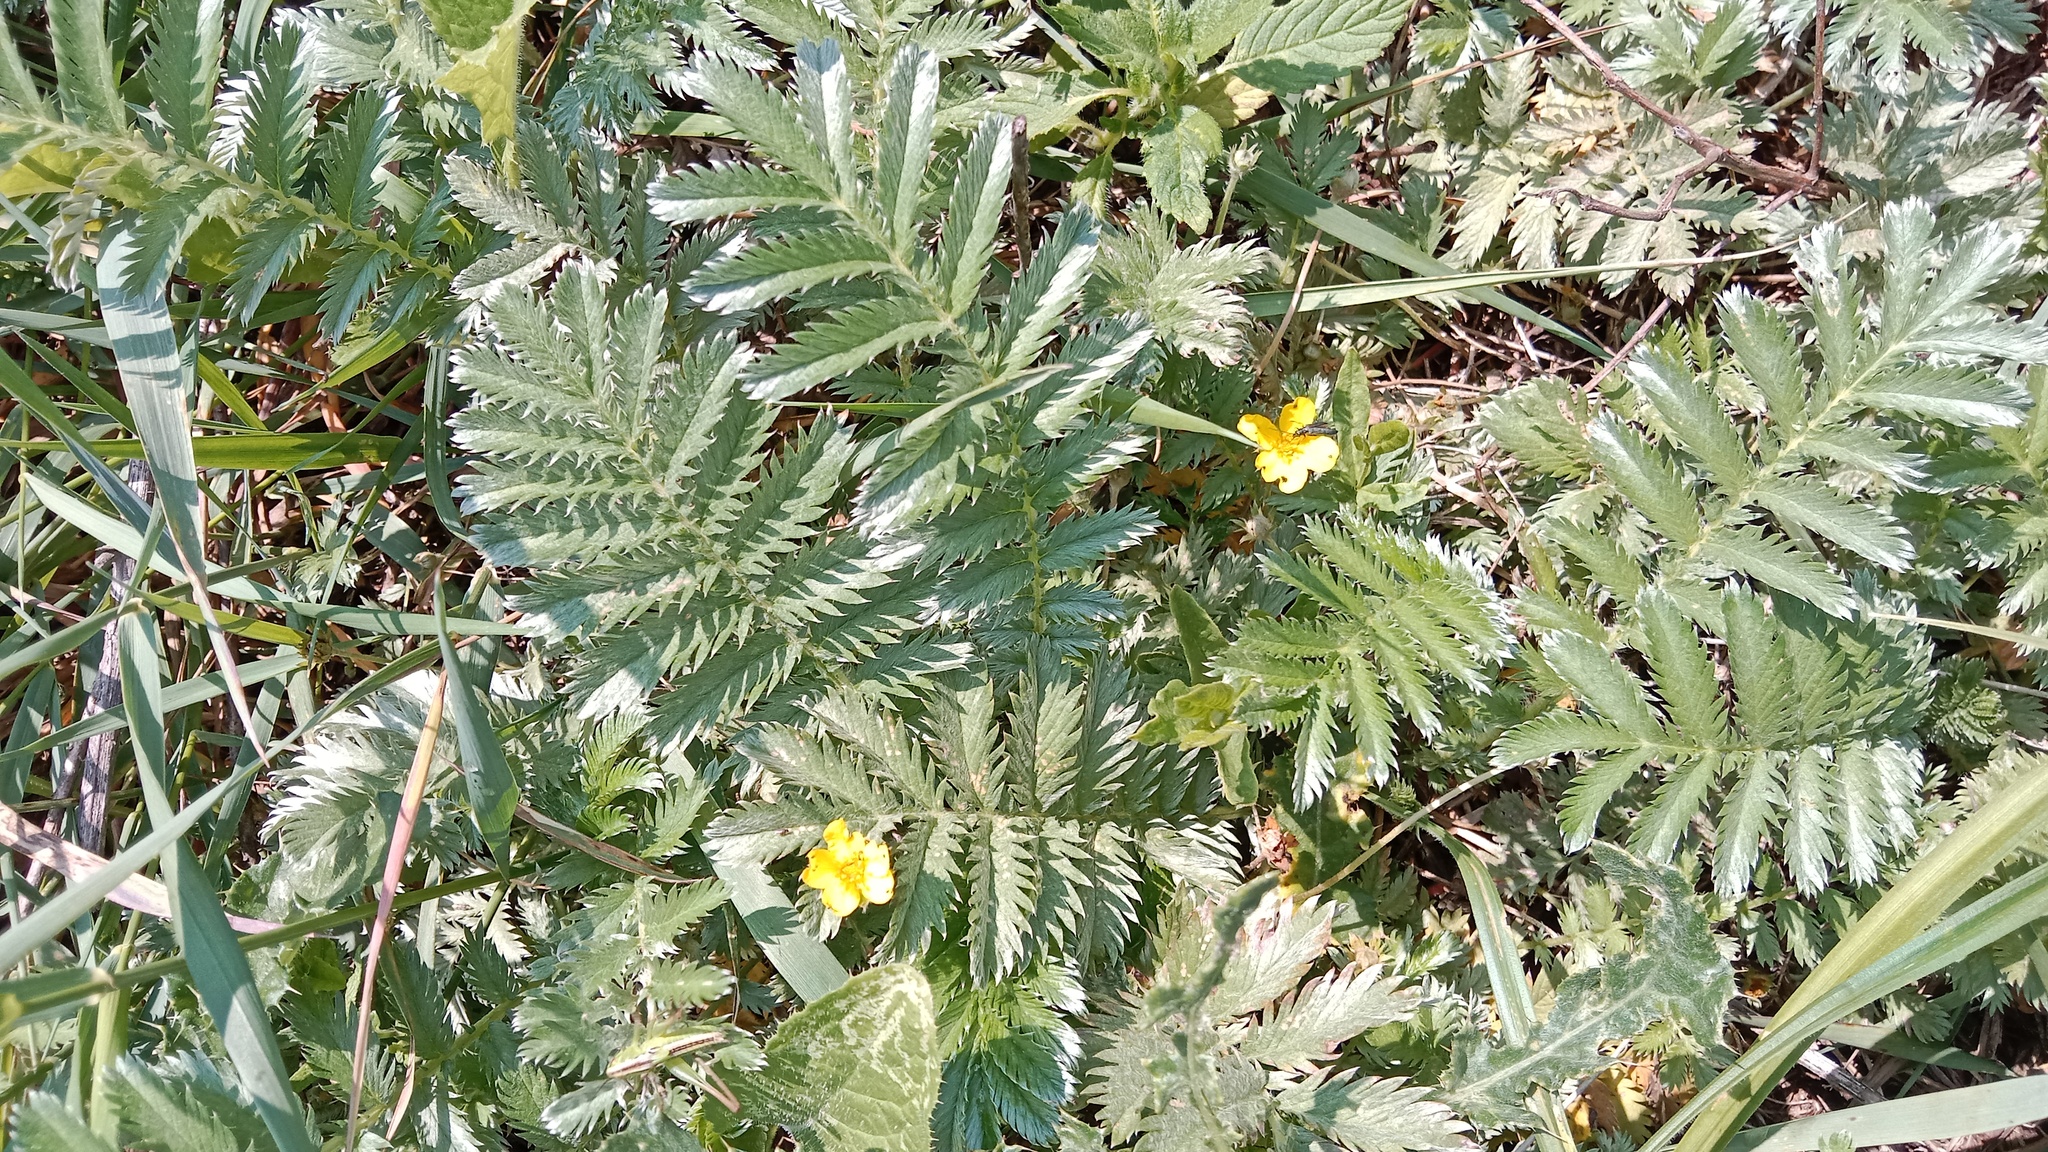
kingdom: Plantae
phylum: Tracheophyta
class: Magnoliopsida
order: Rosales
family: Rosaceae
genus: Argentina
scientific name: Argentina anserina
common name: Common silverweed
